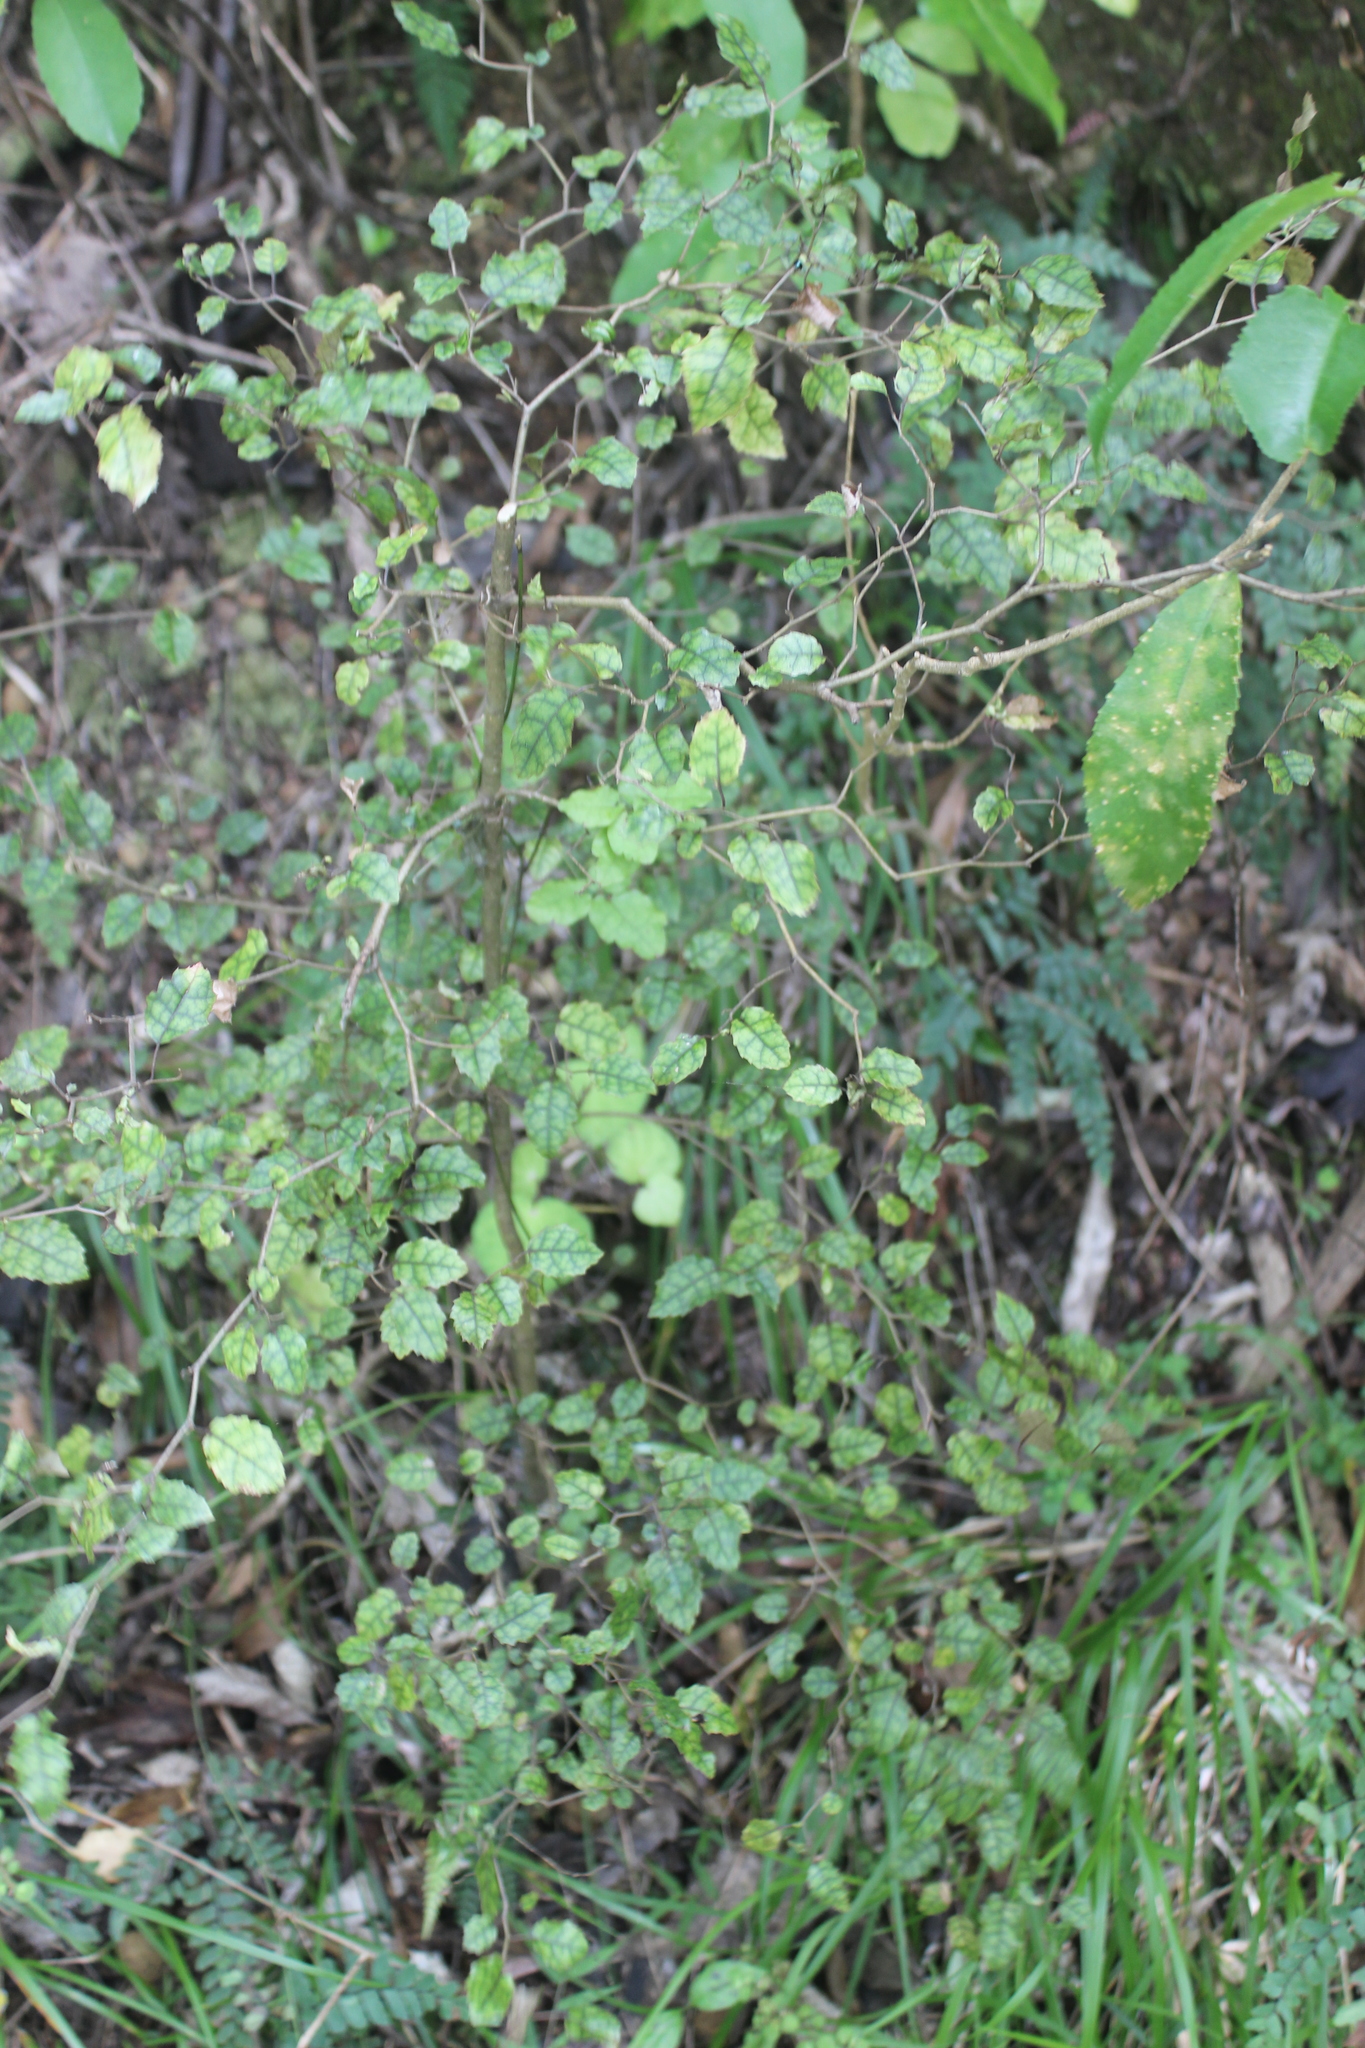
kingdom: Plantae
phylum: Tracheophyta
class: Magnoliopsida
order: Asterales
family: Rousseaceae
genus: Carpodetus
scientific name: Carpodetus serratus
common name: White mapau
